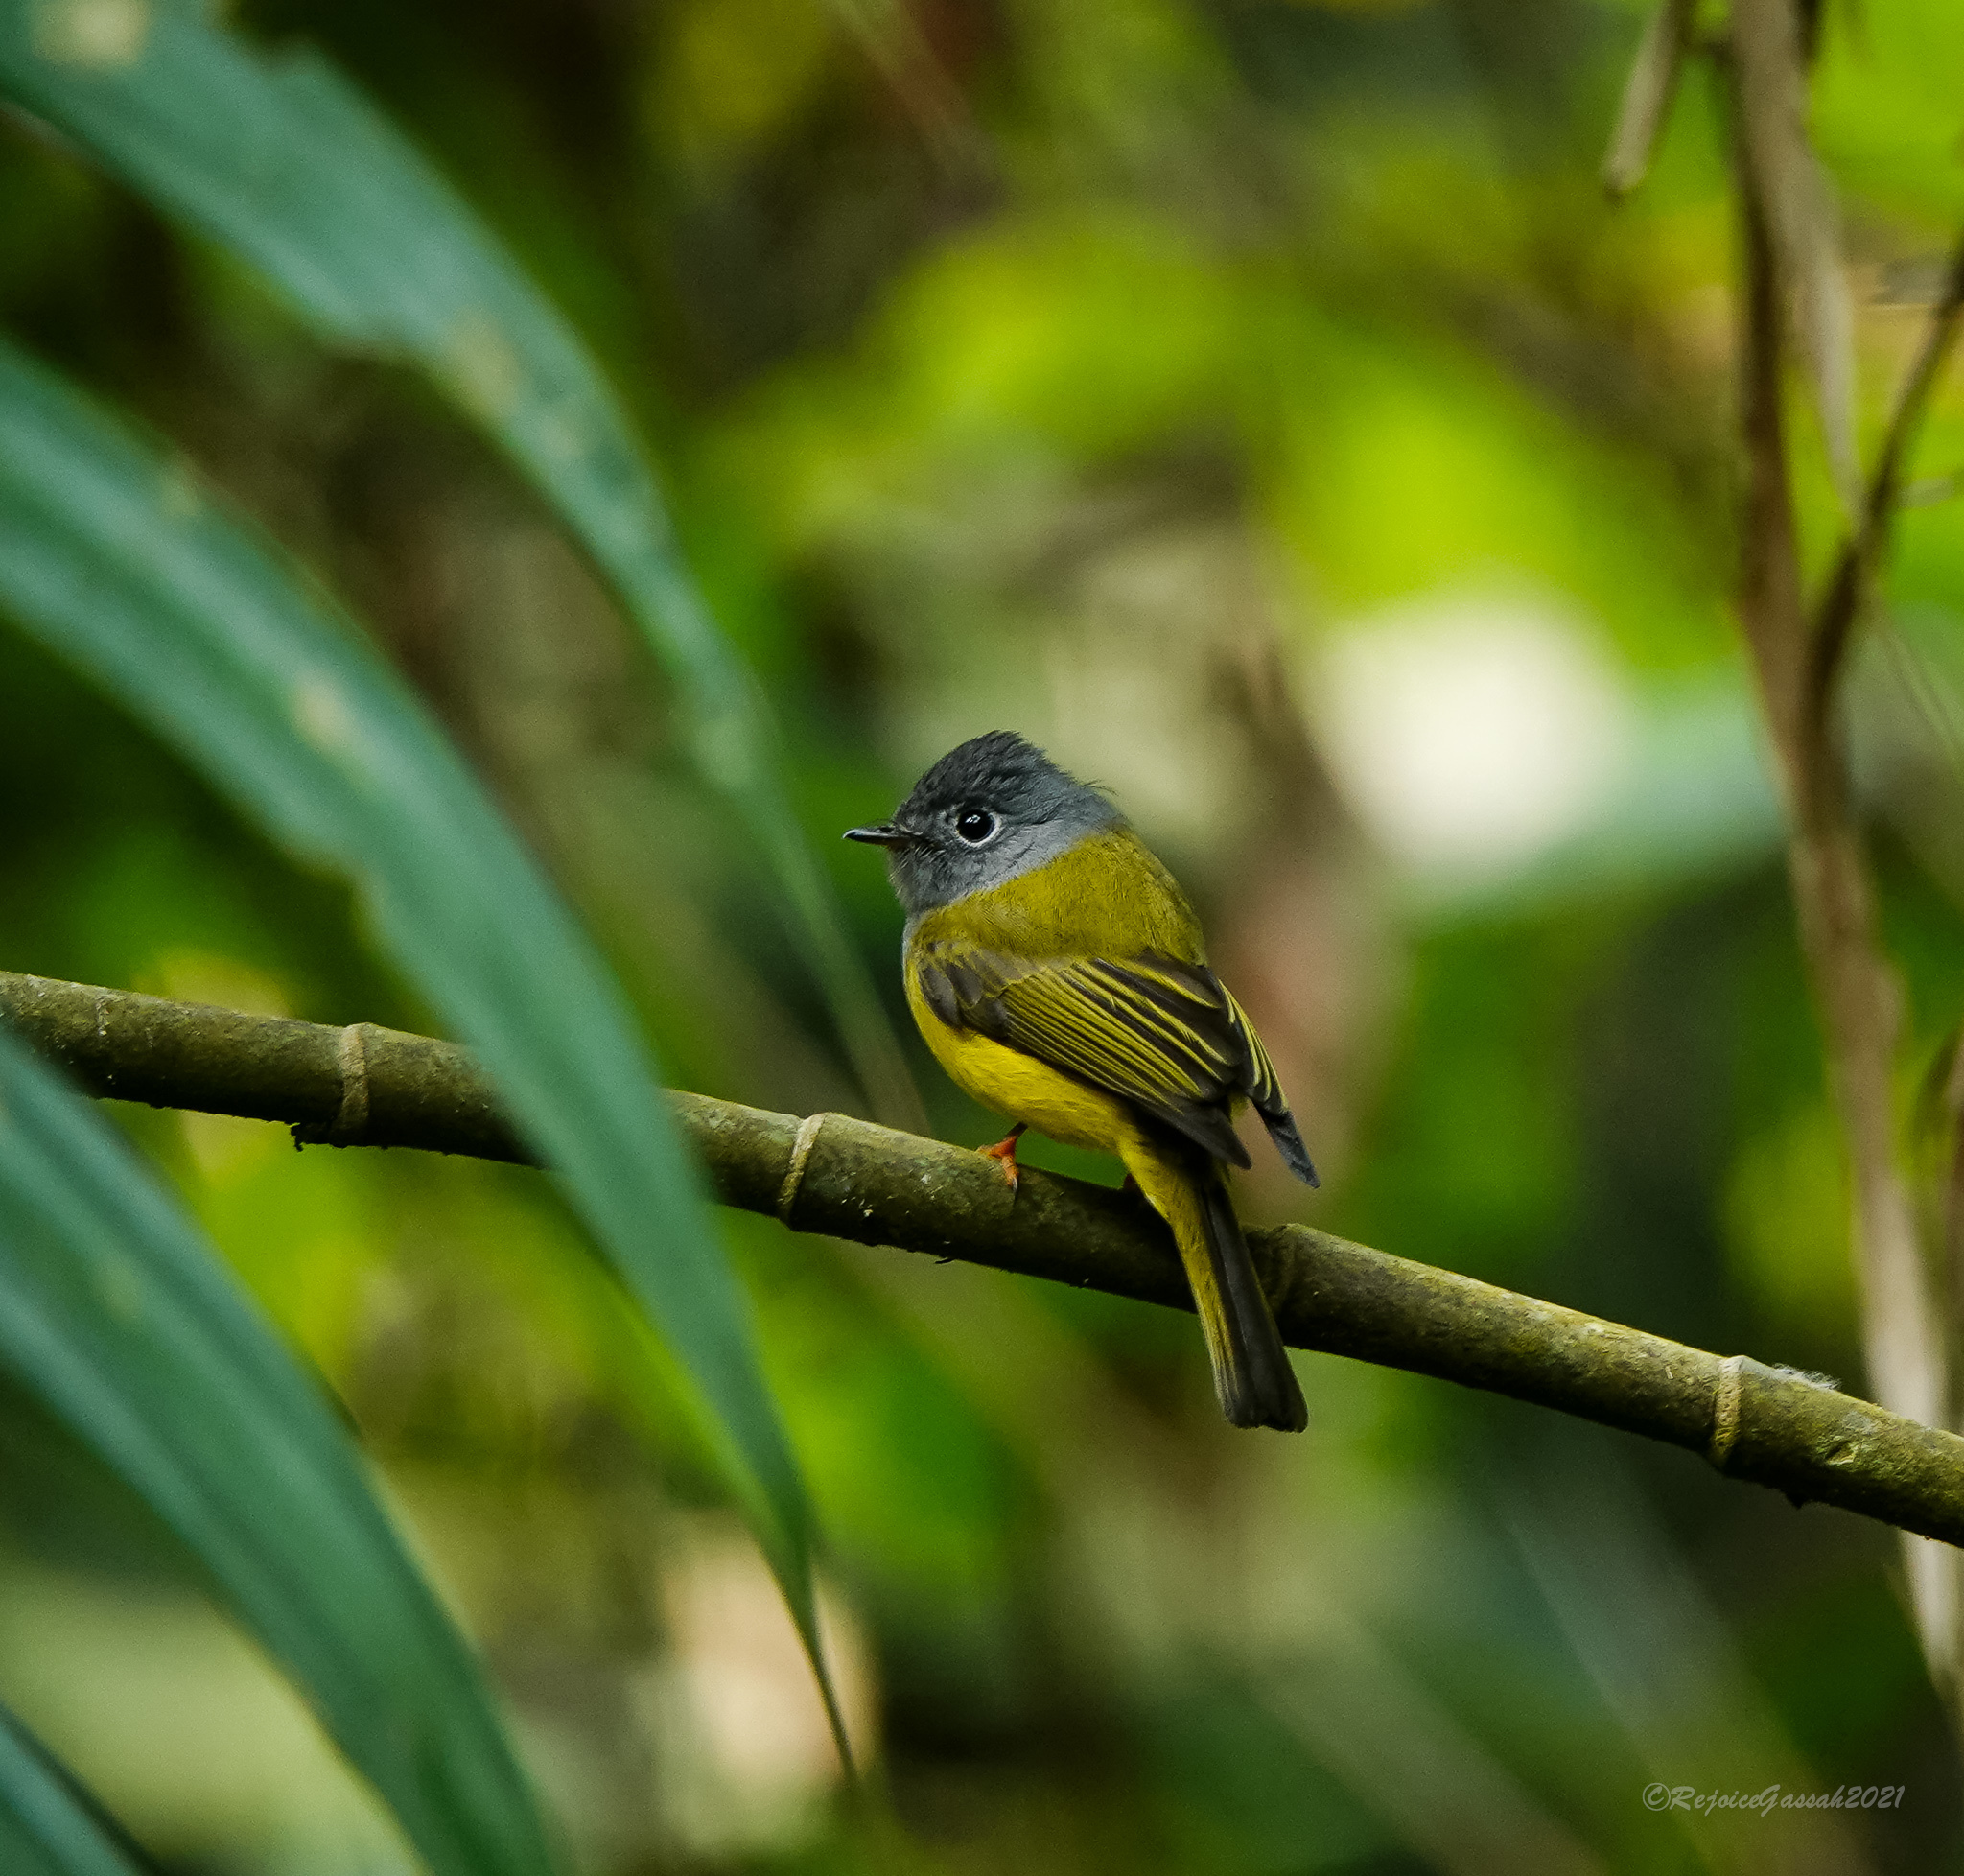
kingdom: Animalia
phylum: Chordata
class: Aves
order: Passeriformes
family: Stenostiridae
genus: Culicicapa
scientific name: Culicicapa ceylonensis
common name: Grey-headed canary-flycatcher
